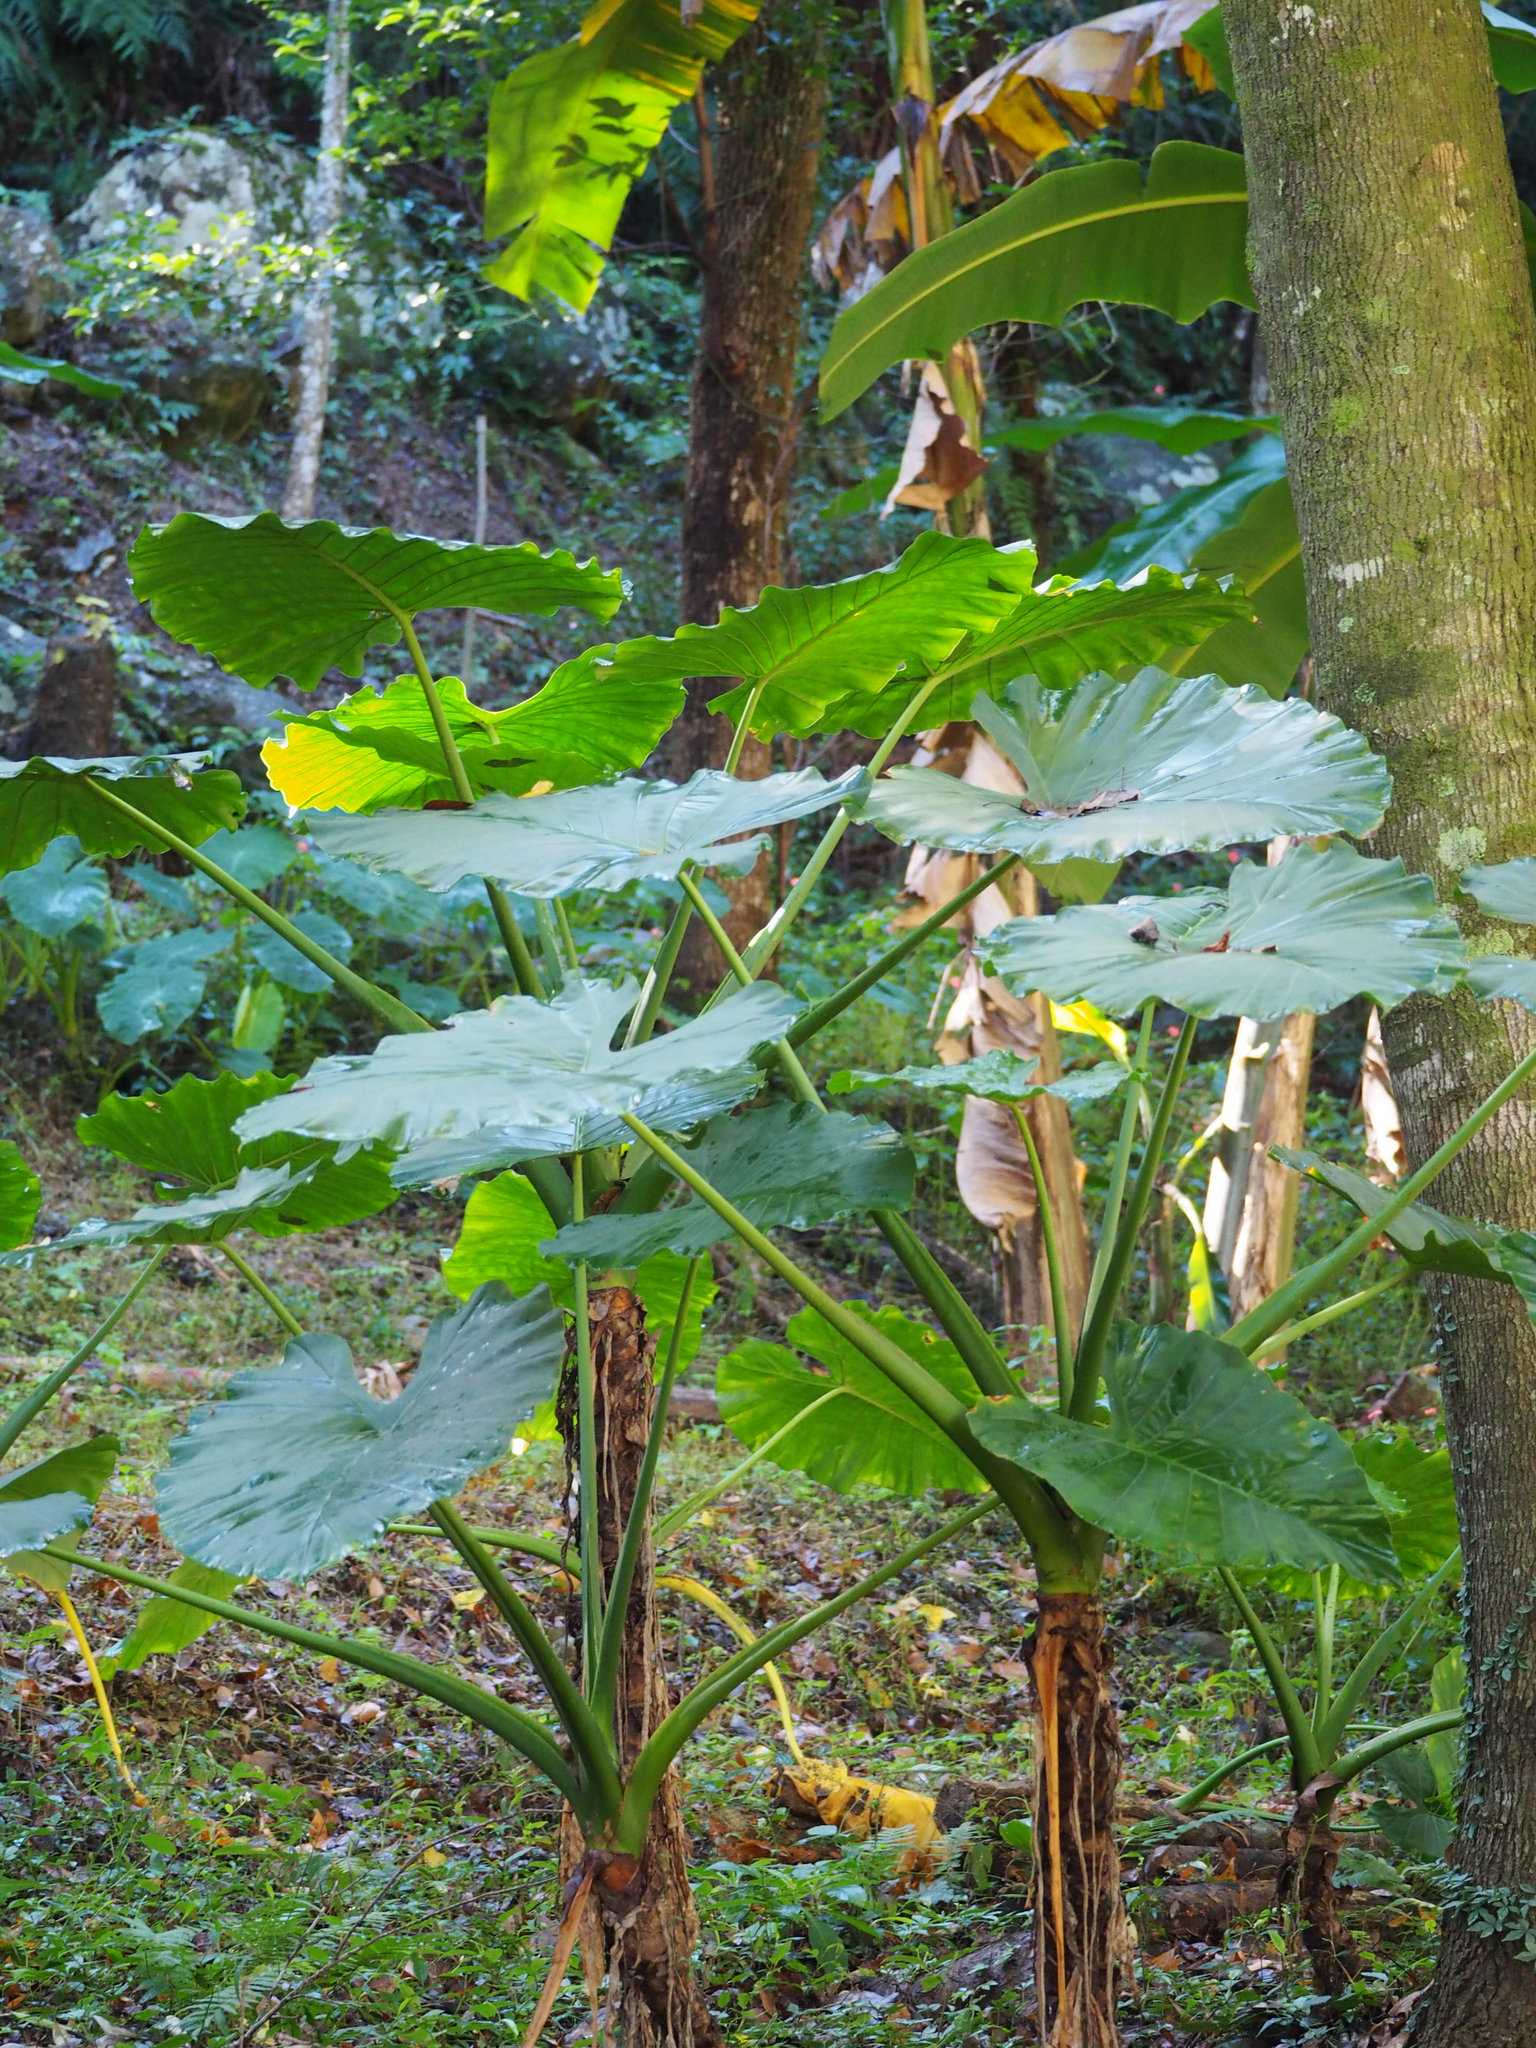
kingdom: Plantae
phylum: Tracheophyta
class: Liliopsida
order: Alismatales
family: Araceae
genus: Alocasia
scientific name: Alocasia odora
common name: Asian taro
